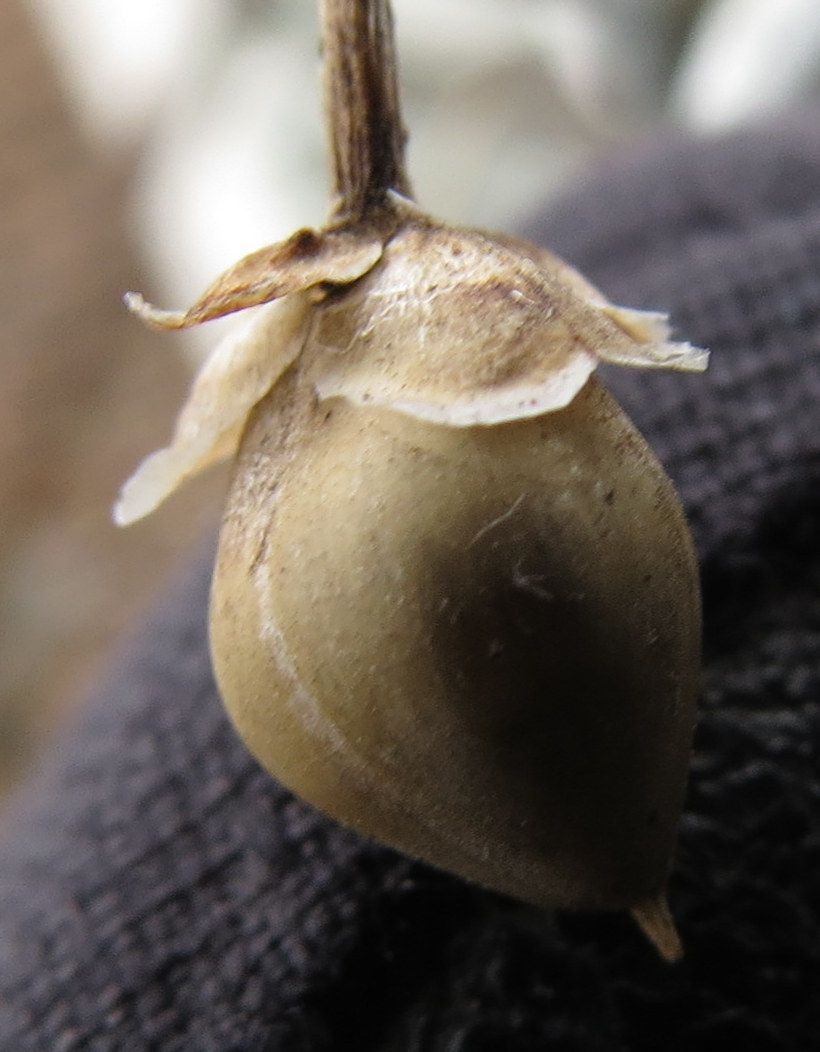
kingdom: Plantae
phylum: Tracheophyta
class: Magnoliopsida
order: Solanales
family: Convolvulaceae
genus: Calystegia
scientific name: Calystegia sepium
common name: Hedge bindweed
